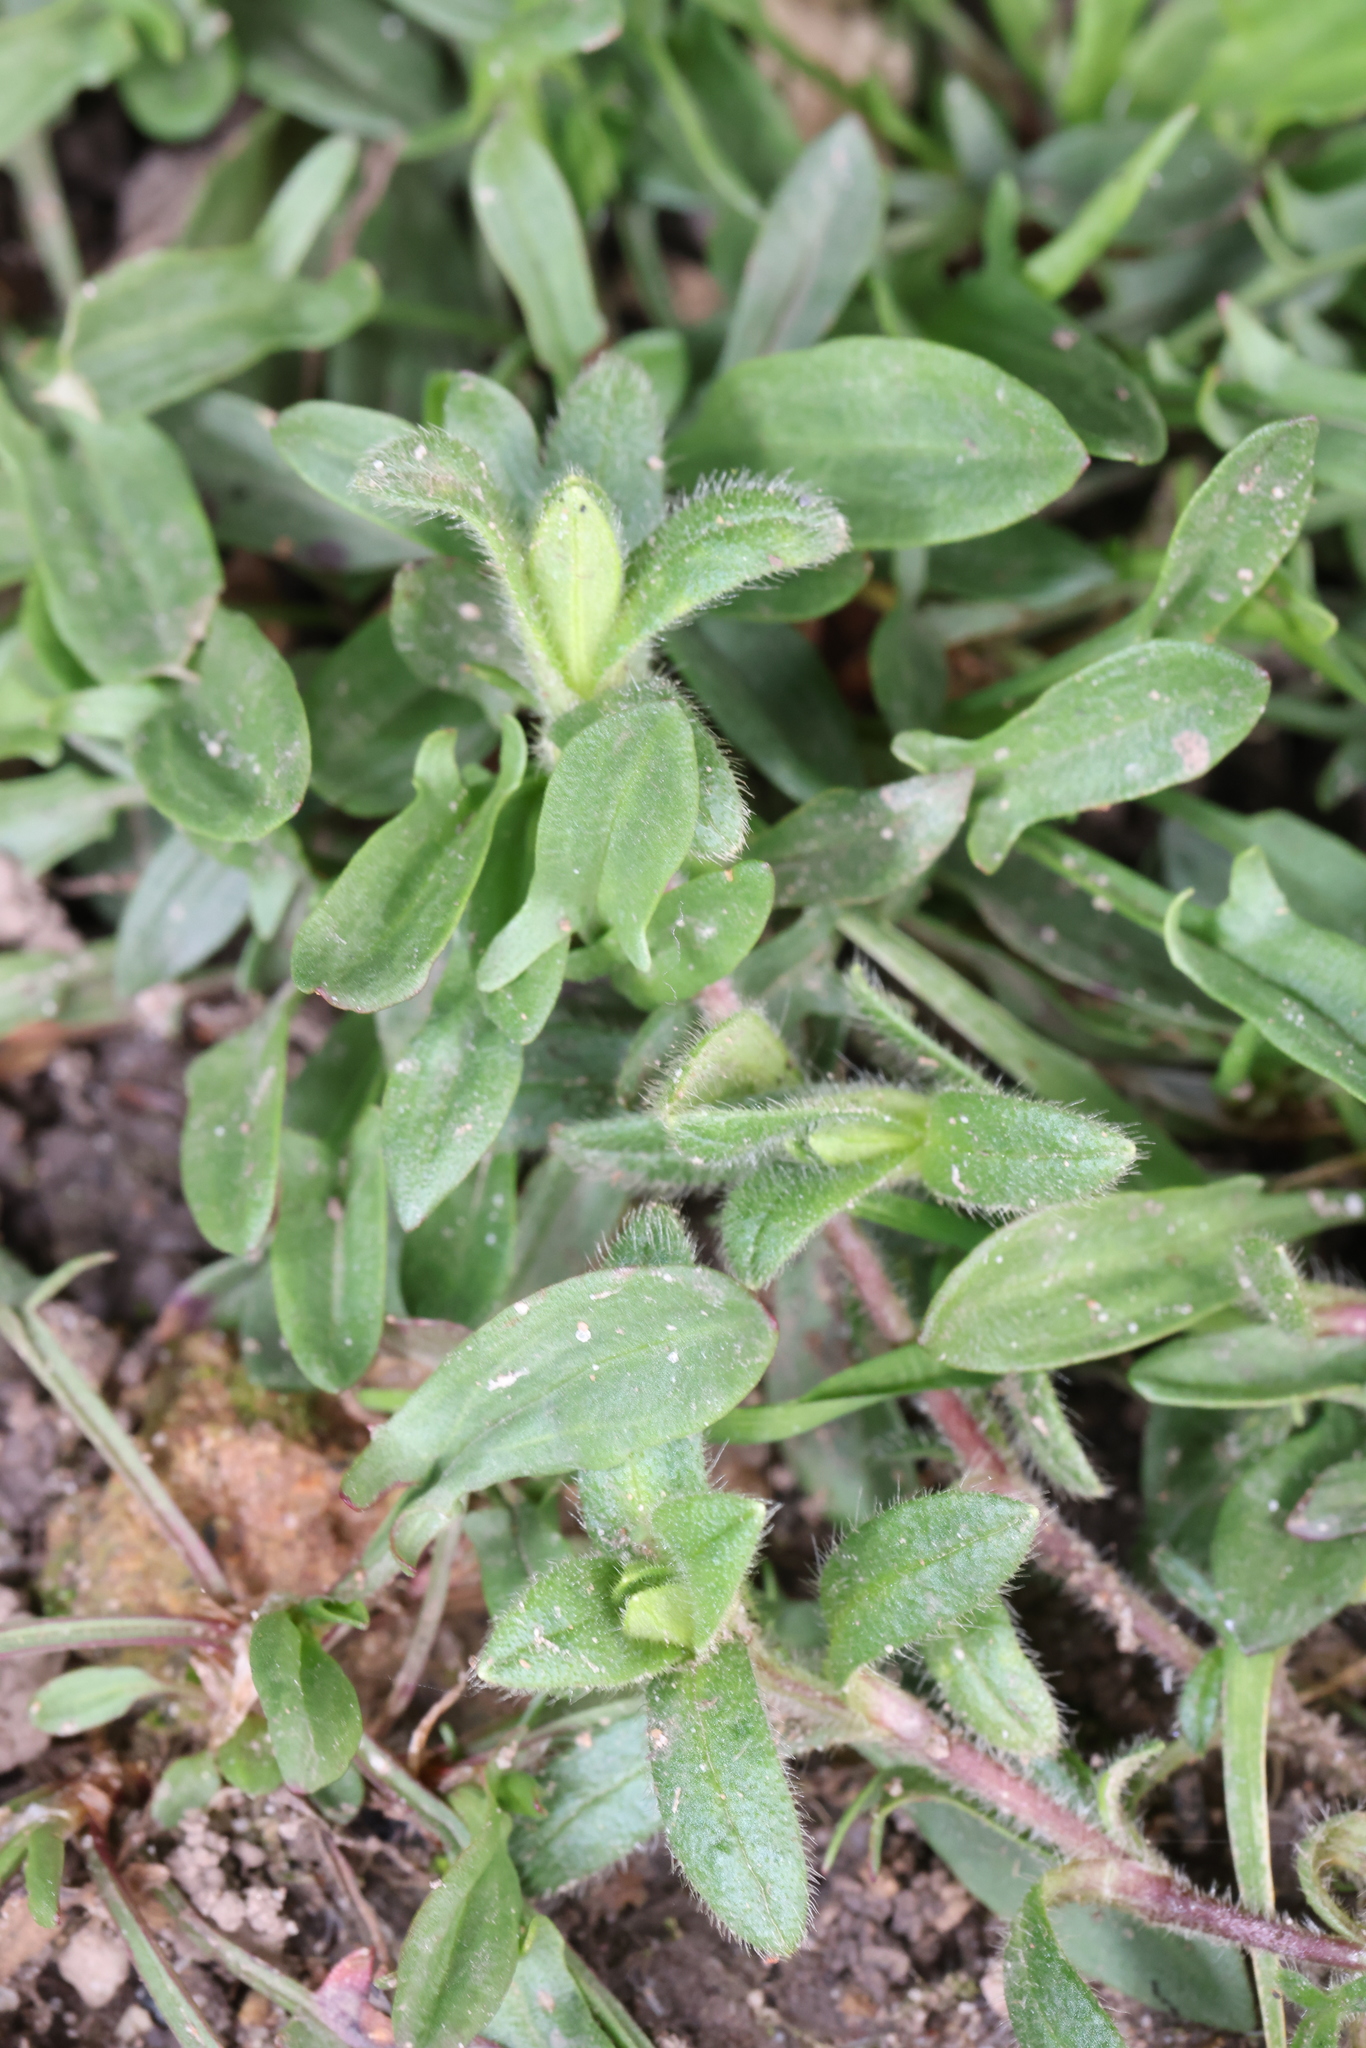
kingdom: Plantae
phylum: Tracheophyta
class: Magnoliopsida
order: Caryophyllales
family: Caryophyllaceae
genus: Cerastium
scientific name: Cerastium fontanum
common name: Common mouse-ear
